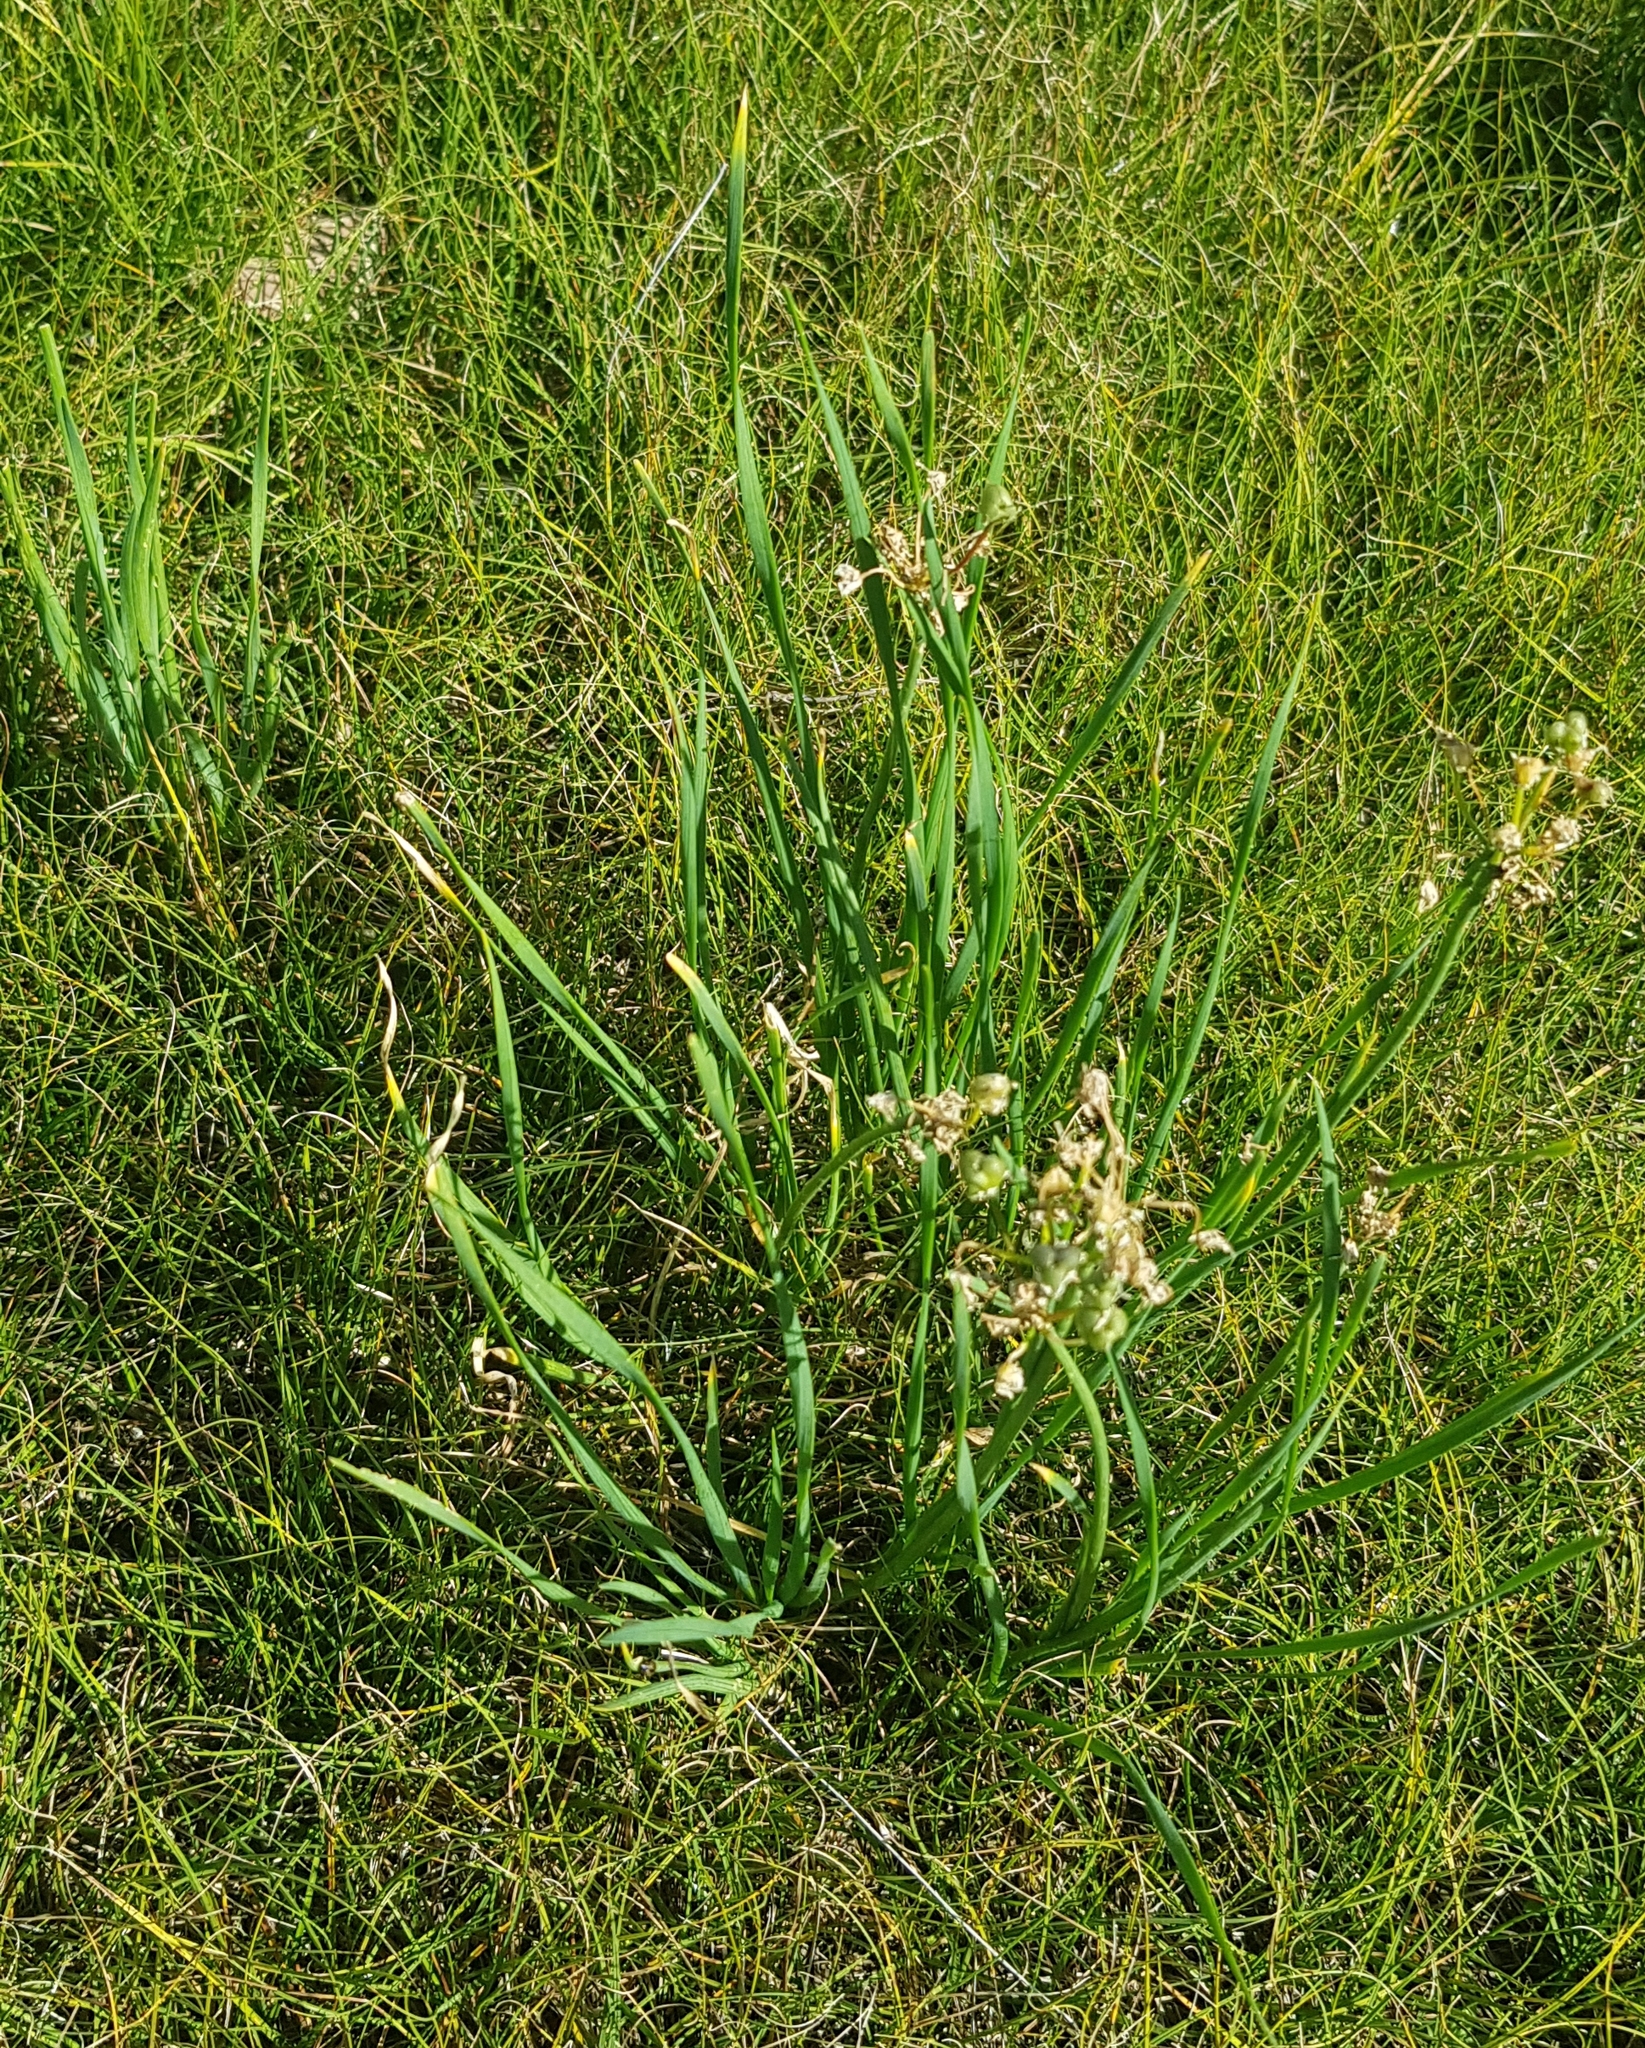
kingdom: Plantae
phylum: Tracheophyta
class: Liliopsida
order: Asparagales
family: Amaryllidaceae
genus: Allium
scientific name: Allium senescens
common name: German garlic
